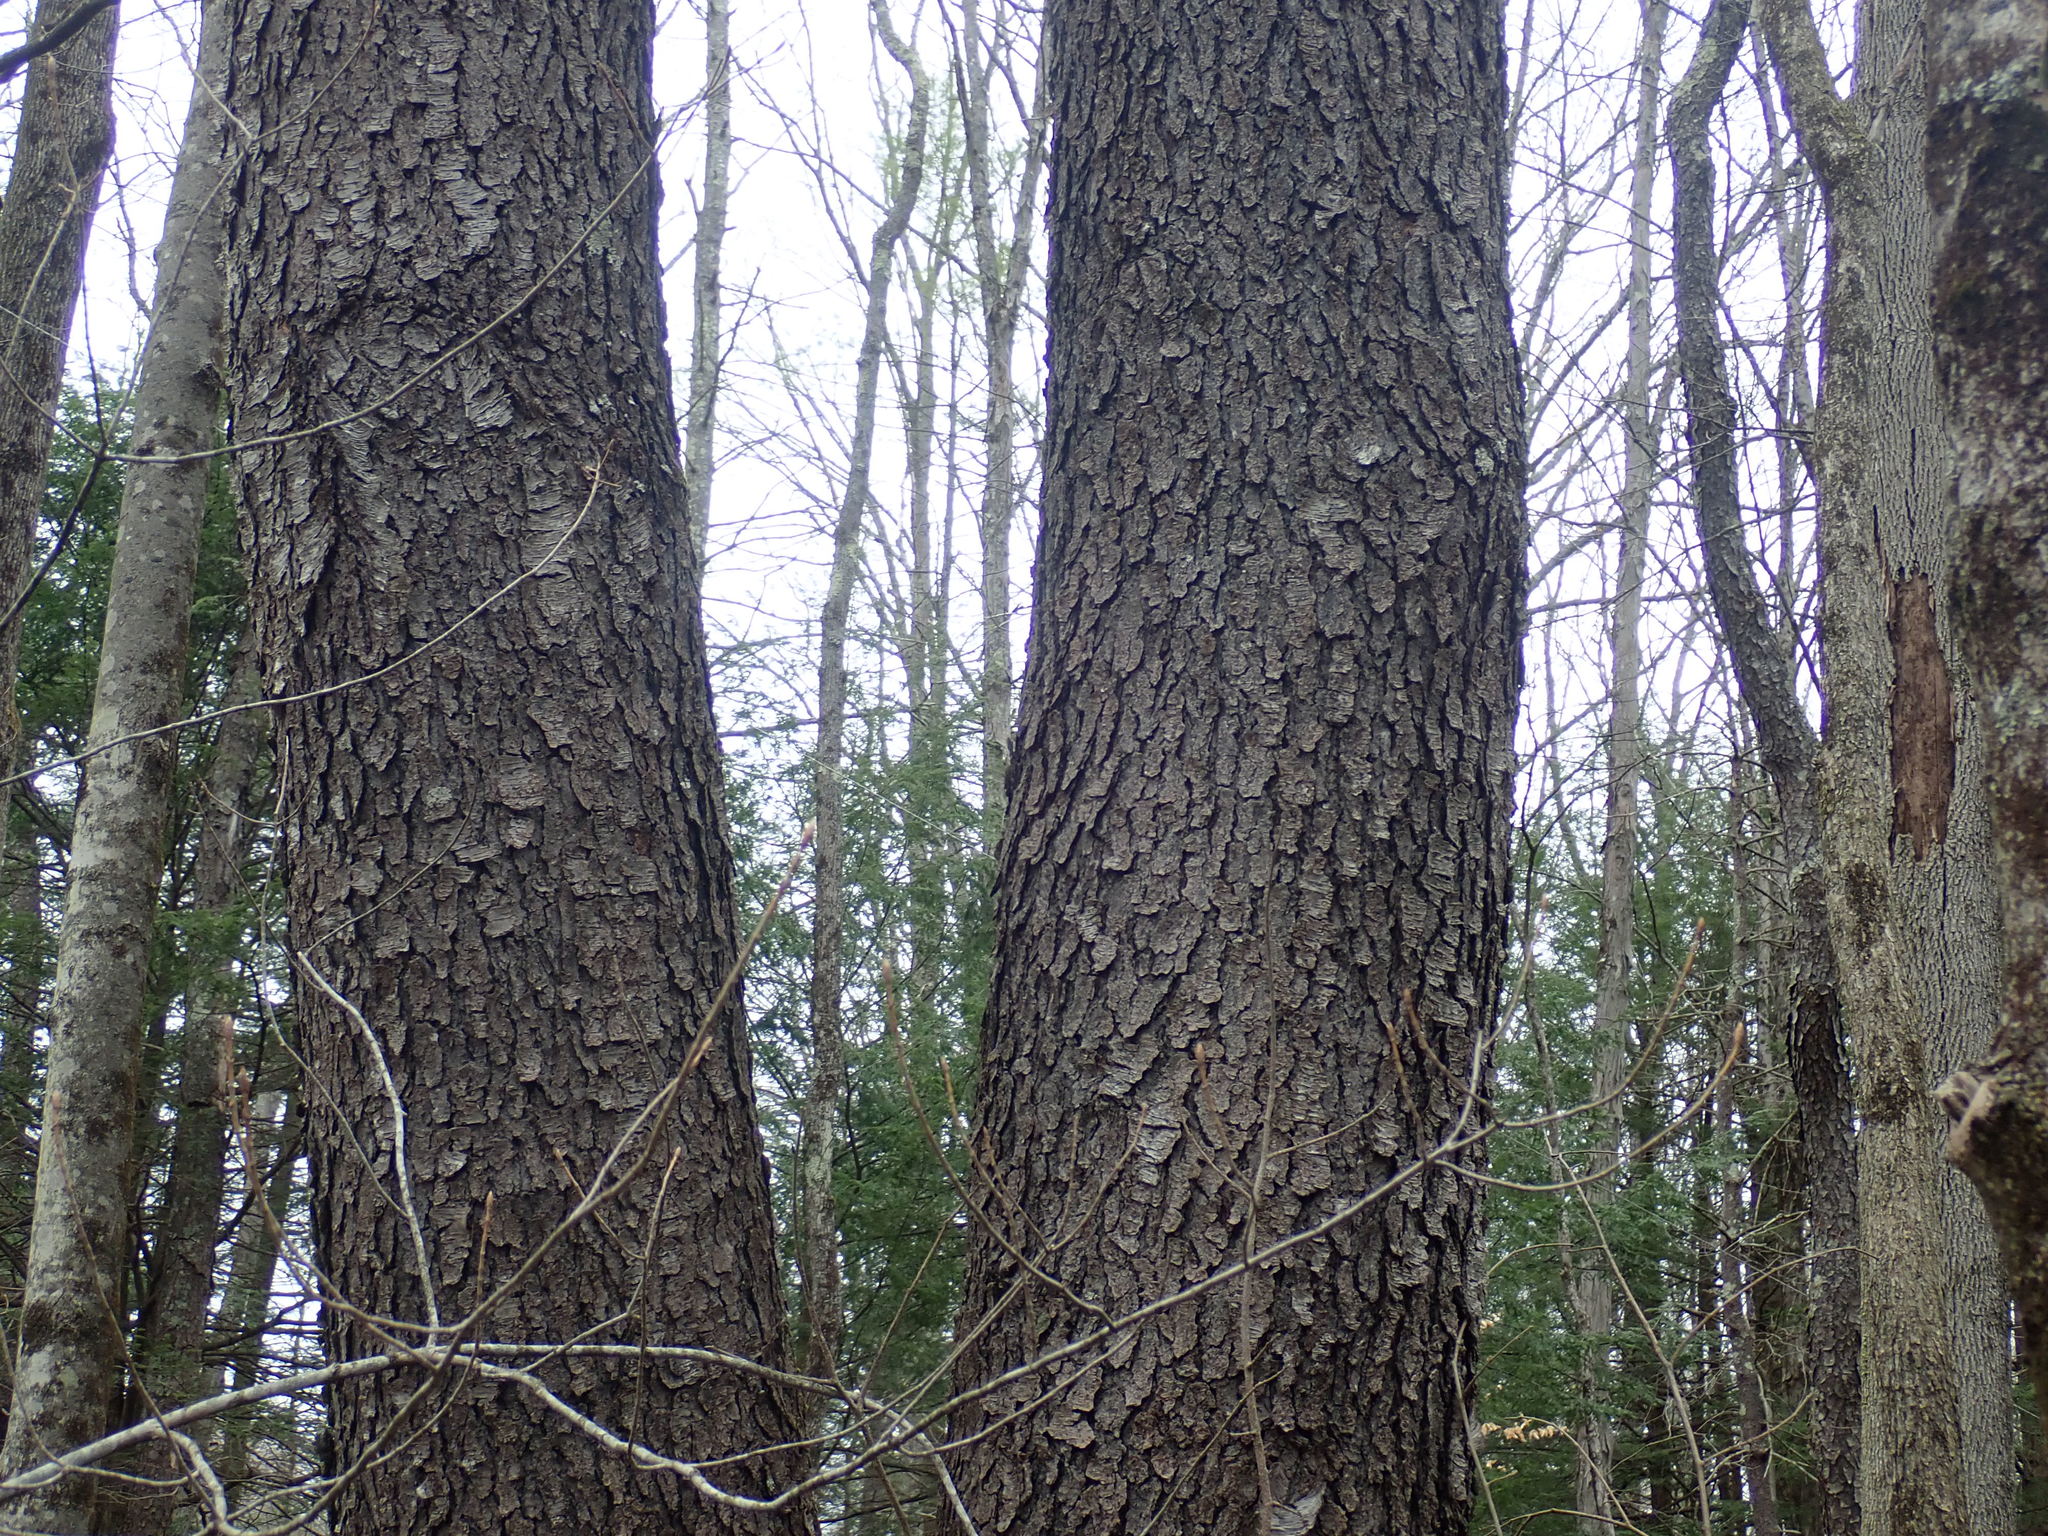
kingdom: Plantae
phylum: Tracheophyta
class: Magnoliopsida
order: Rosales
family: Rosaceae
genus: Prunus
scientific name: Prunus serotina
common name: Black cherry
